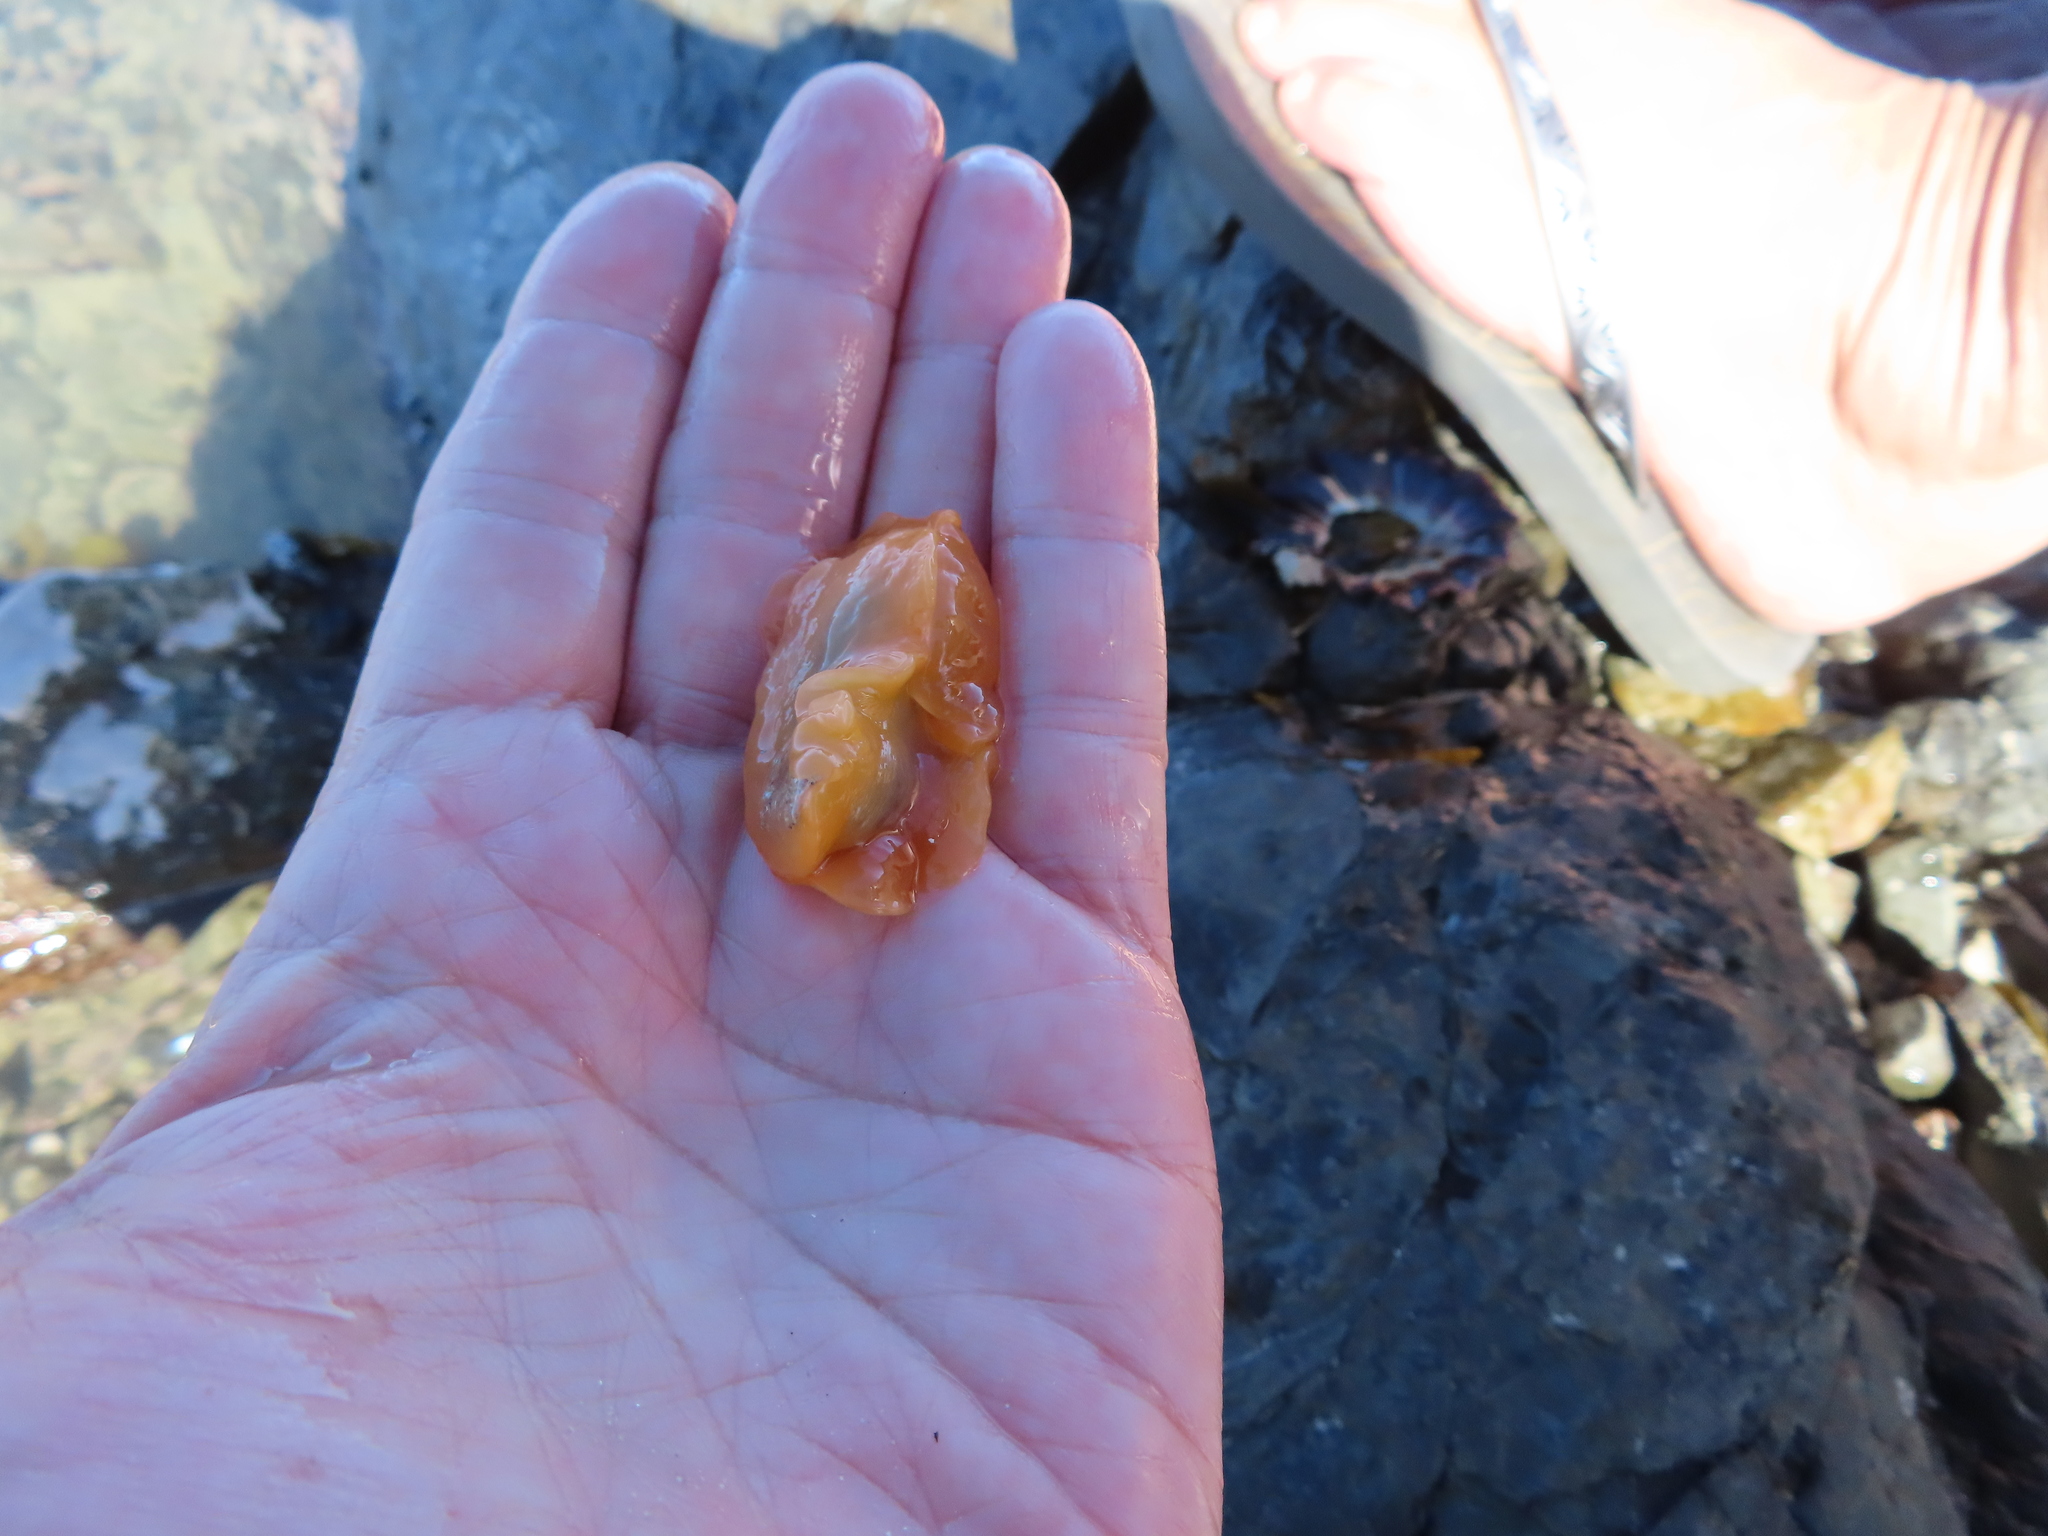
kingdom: Animalia
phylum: Mollusca
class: Gastropoda
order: Pleurobranchida
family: Pleurobranchidae
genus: Berthellina
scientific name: Berthellina granulata
